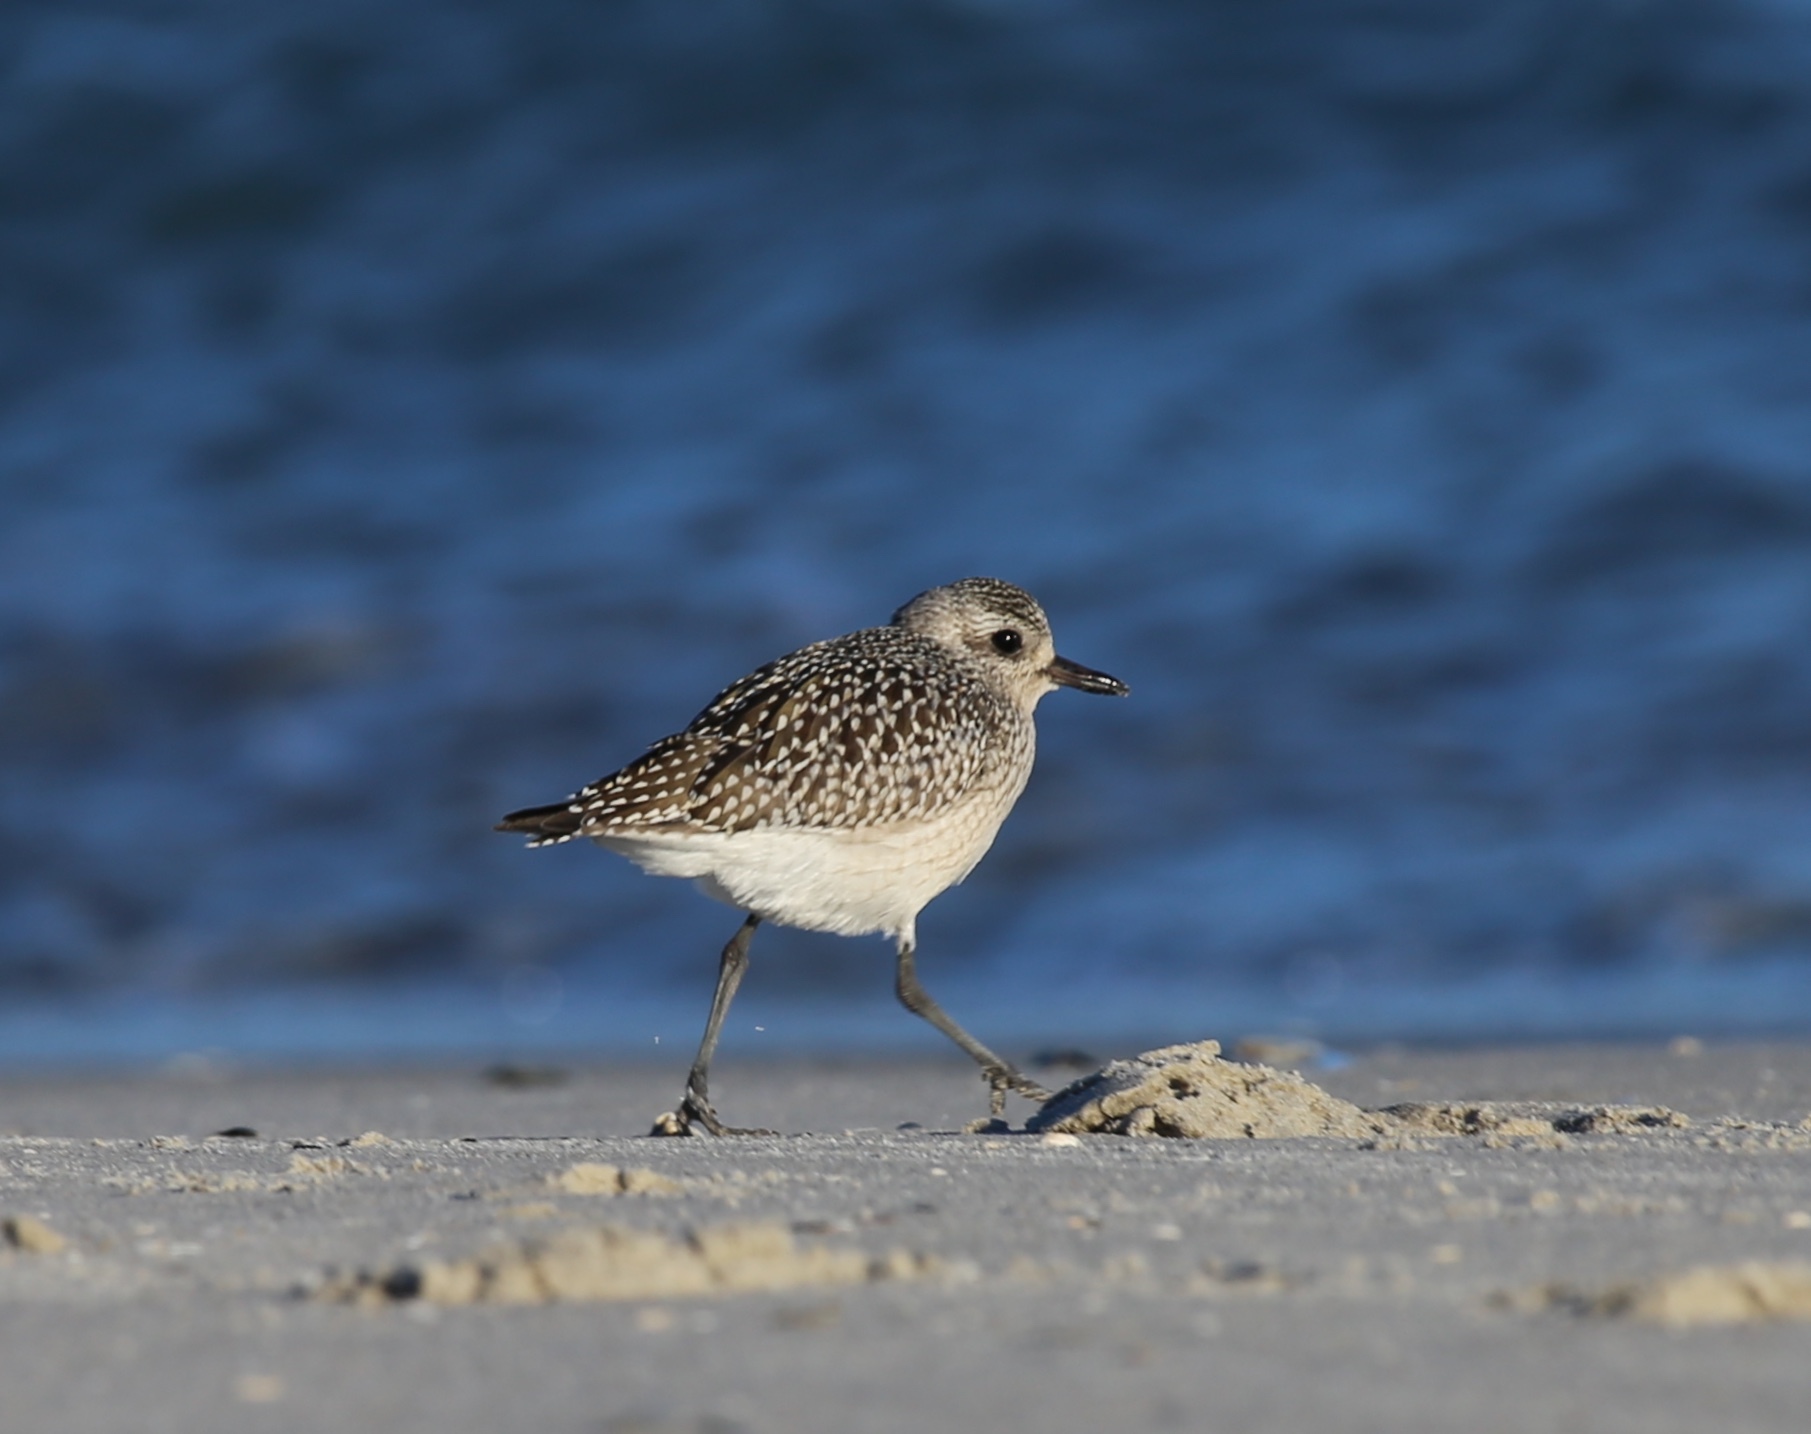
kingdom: Animalia
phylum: Chordata
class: Aves
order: Charadriiformes
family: Charadriidae
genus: Pluvialis
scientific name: Pluvialis squatarola
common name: Grey plover
